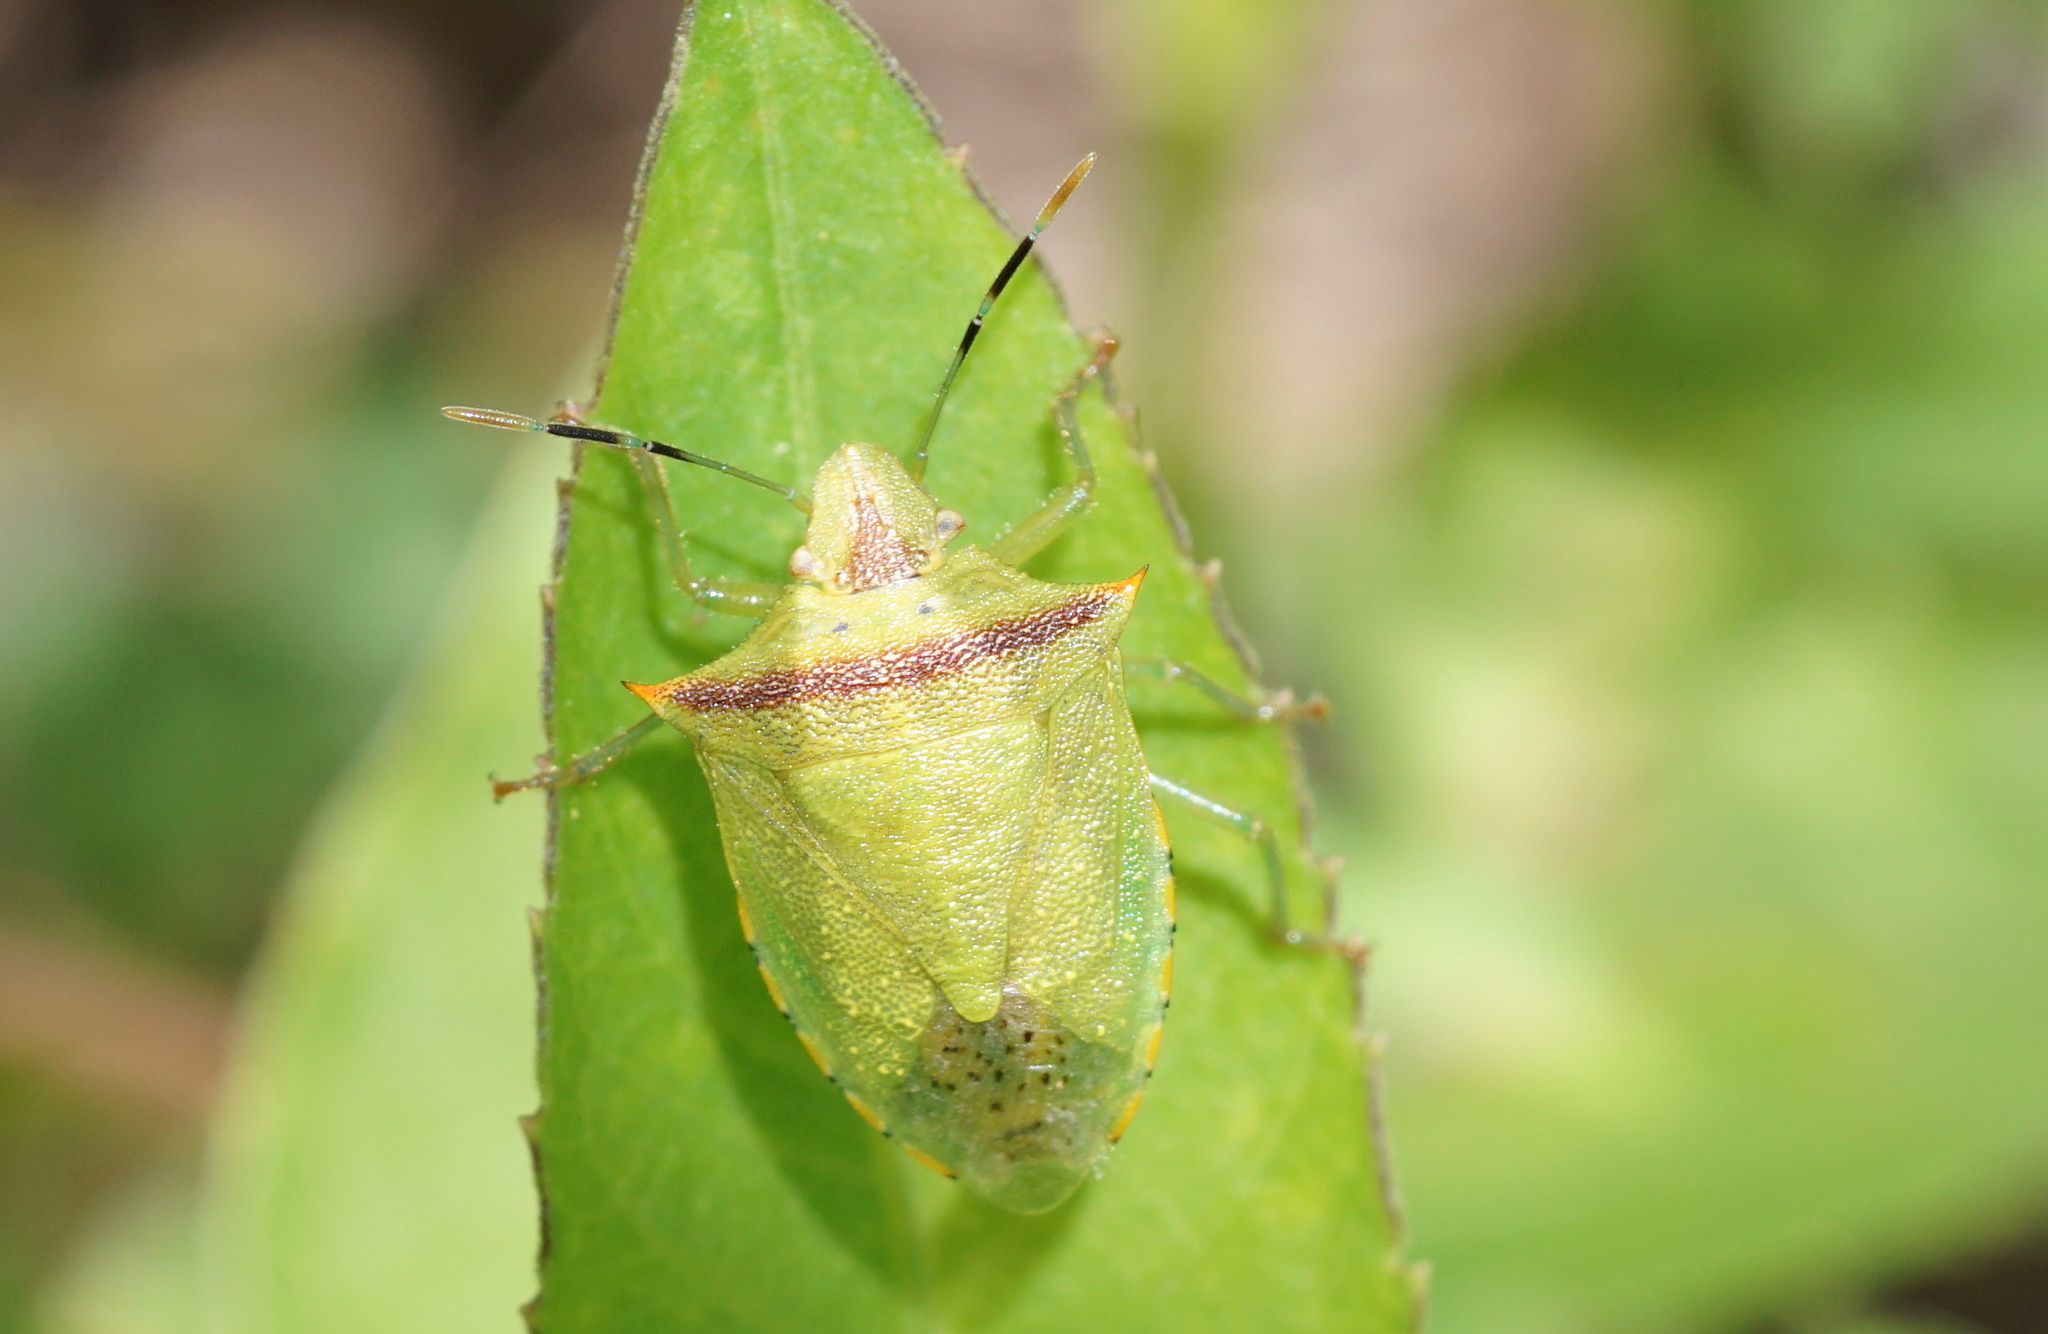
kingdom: Animalia
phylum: Arthropoda
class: Insecta
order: Hemiptera
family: Pentatomidae
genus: Thyanta
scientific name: Thyanta perditor
